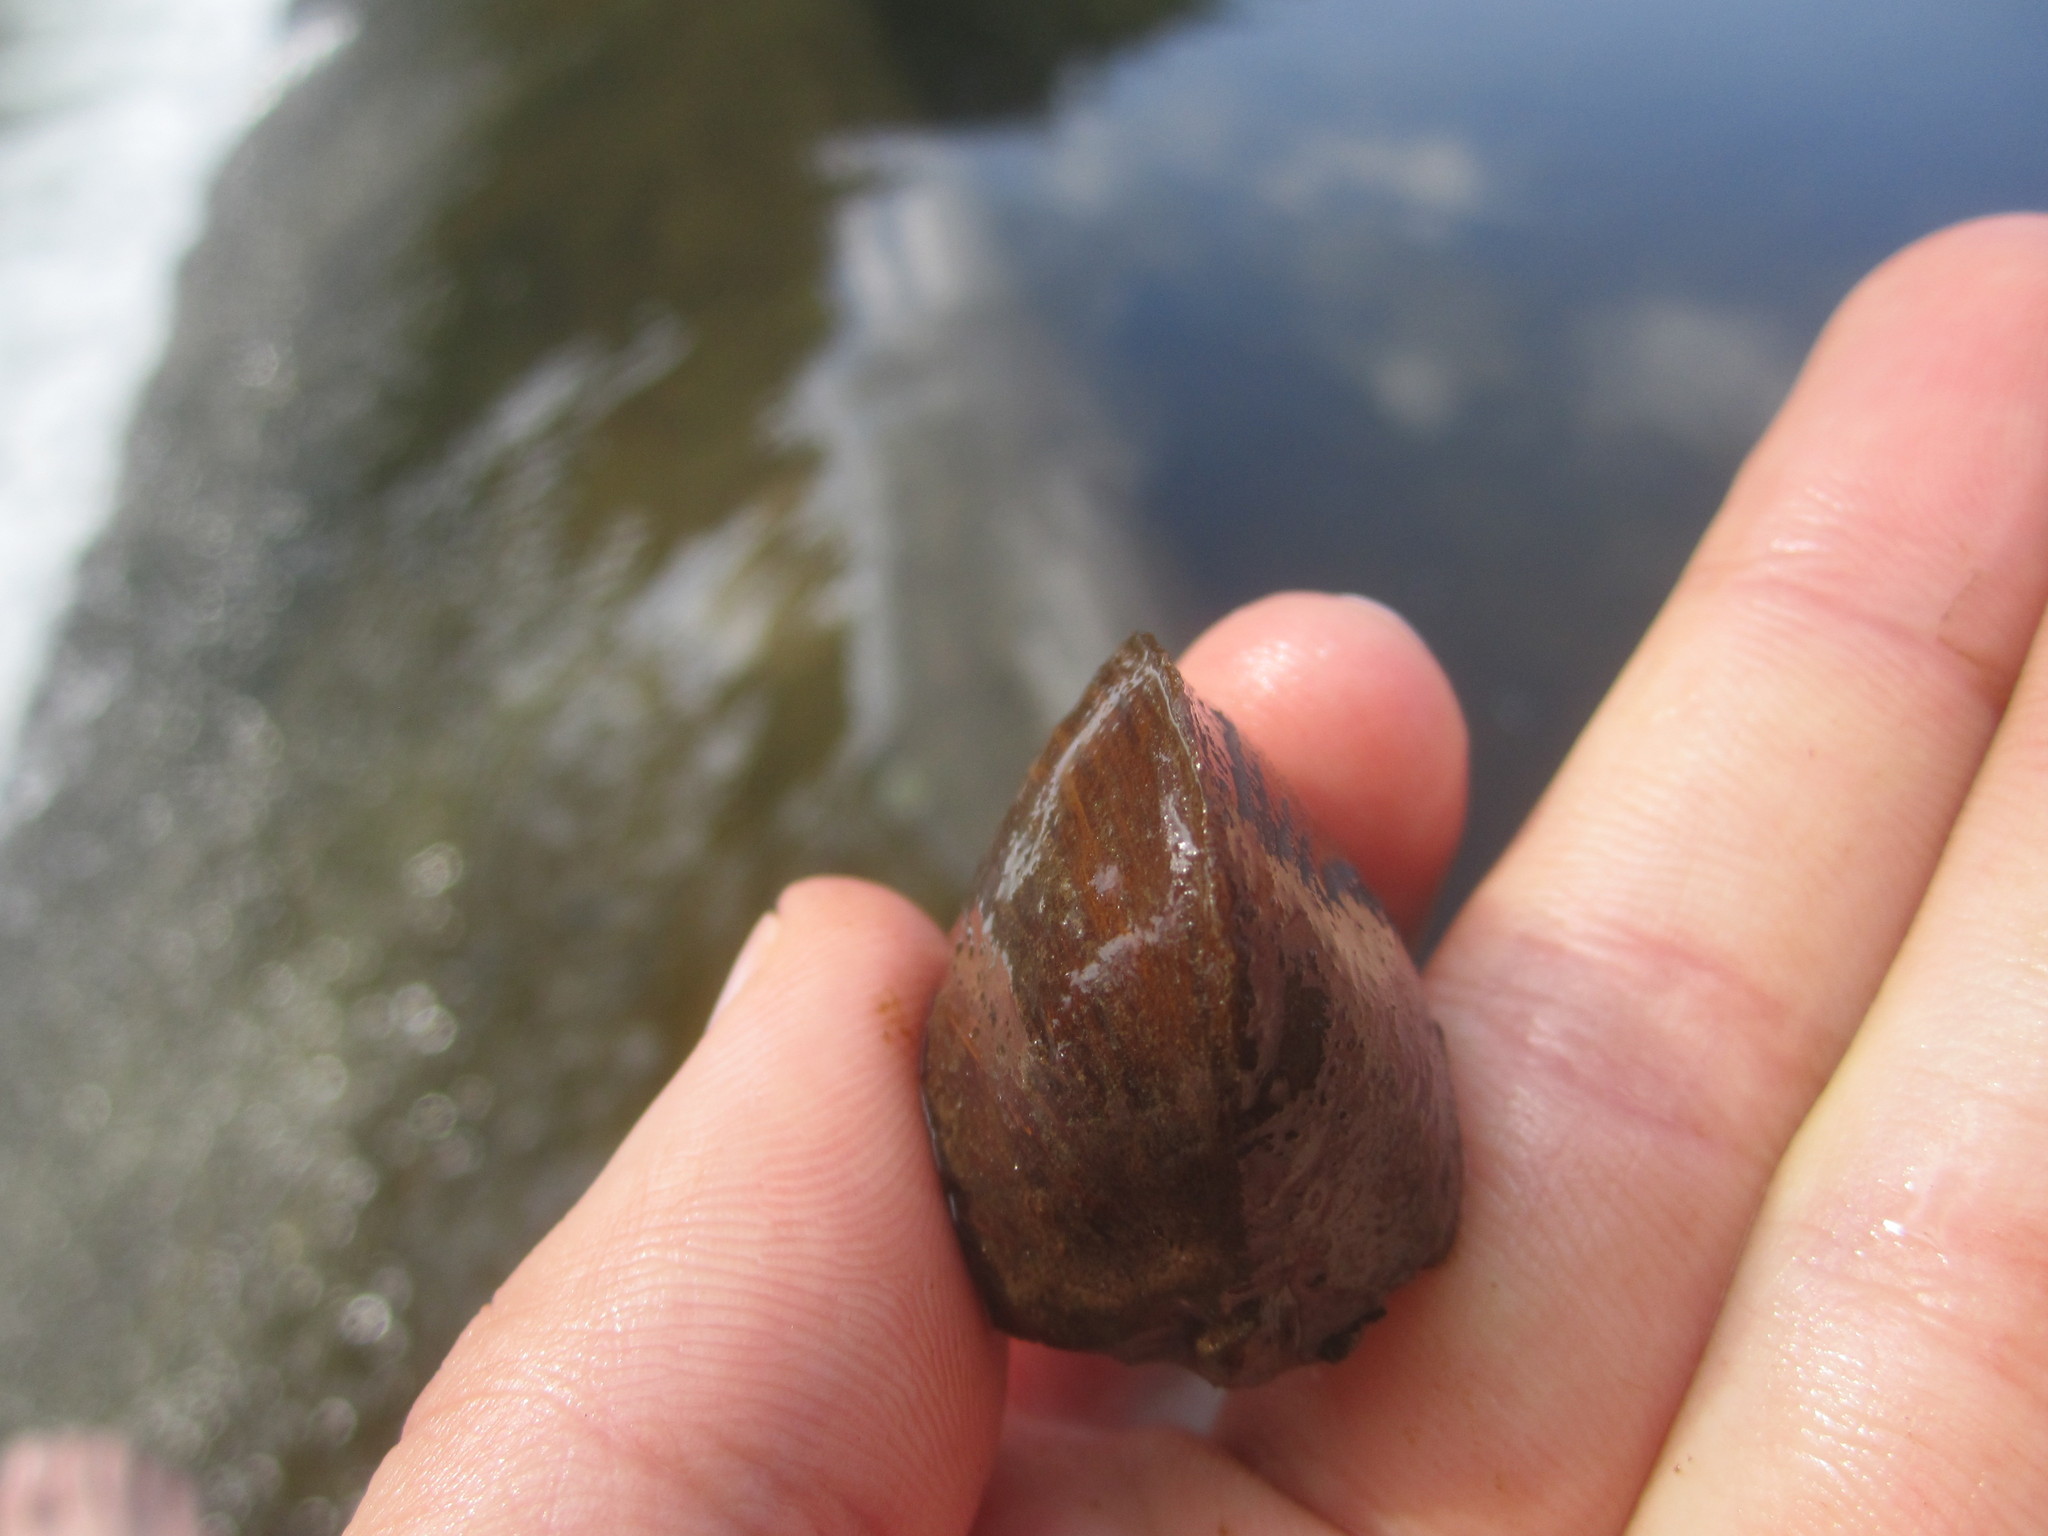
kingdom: Animalia
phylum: Mollusca
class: Bivalvia
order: Venerida
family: Cyrenidae
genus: Corbicula
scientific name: Corbicula fluminea
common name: Asian clam
